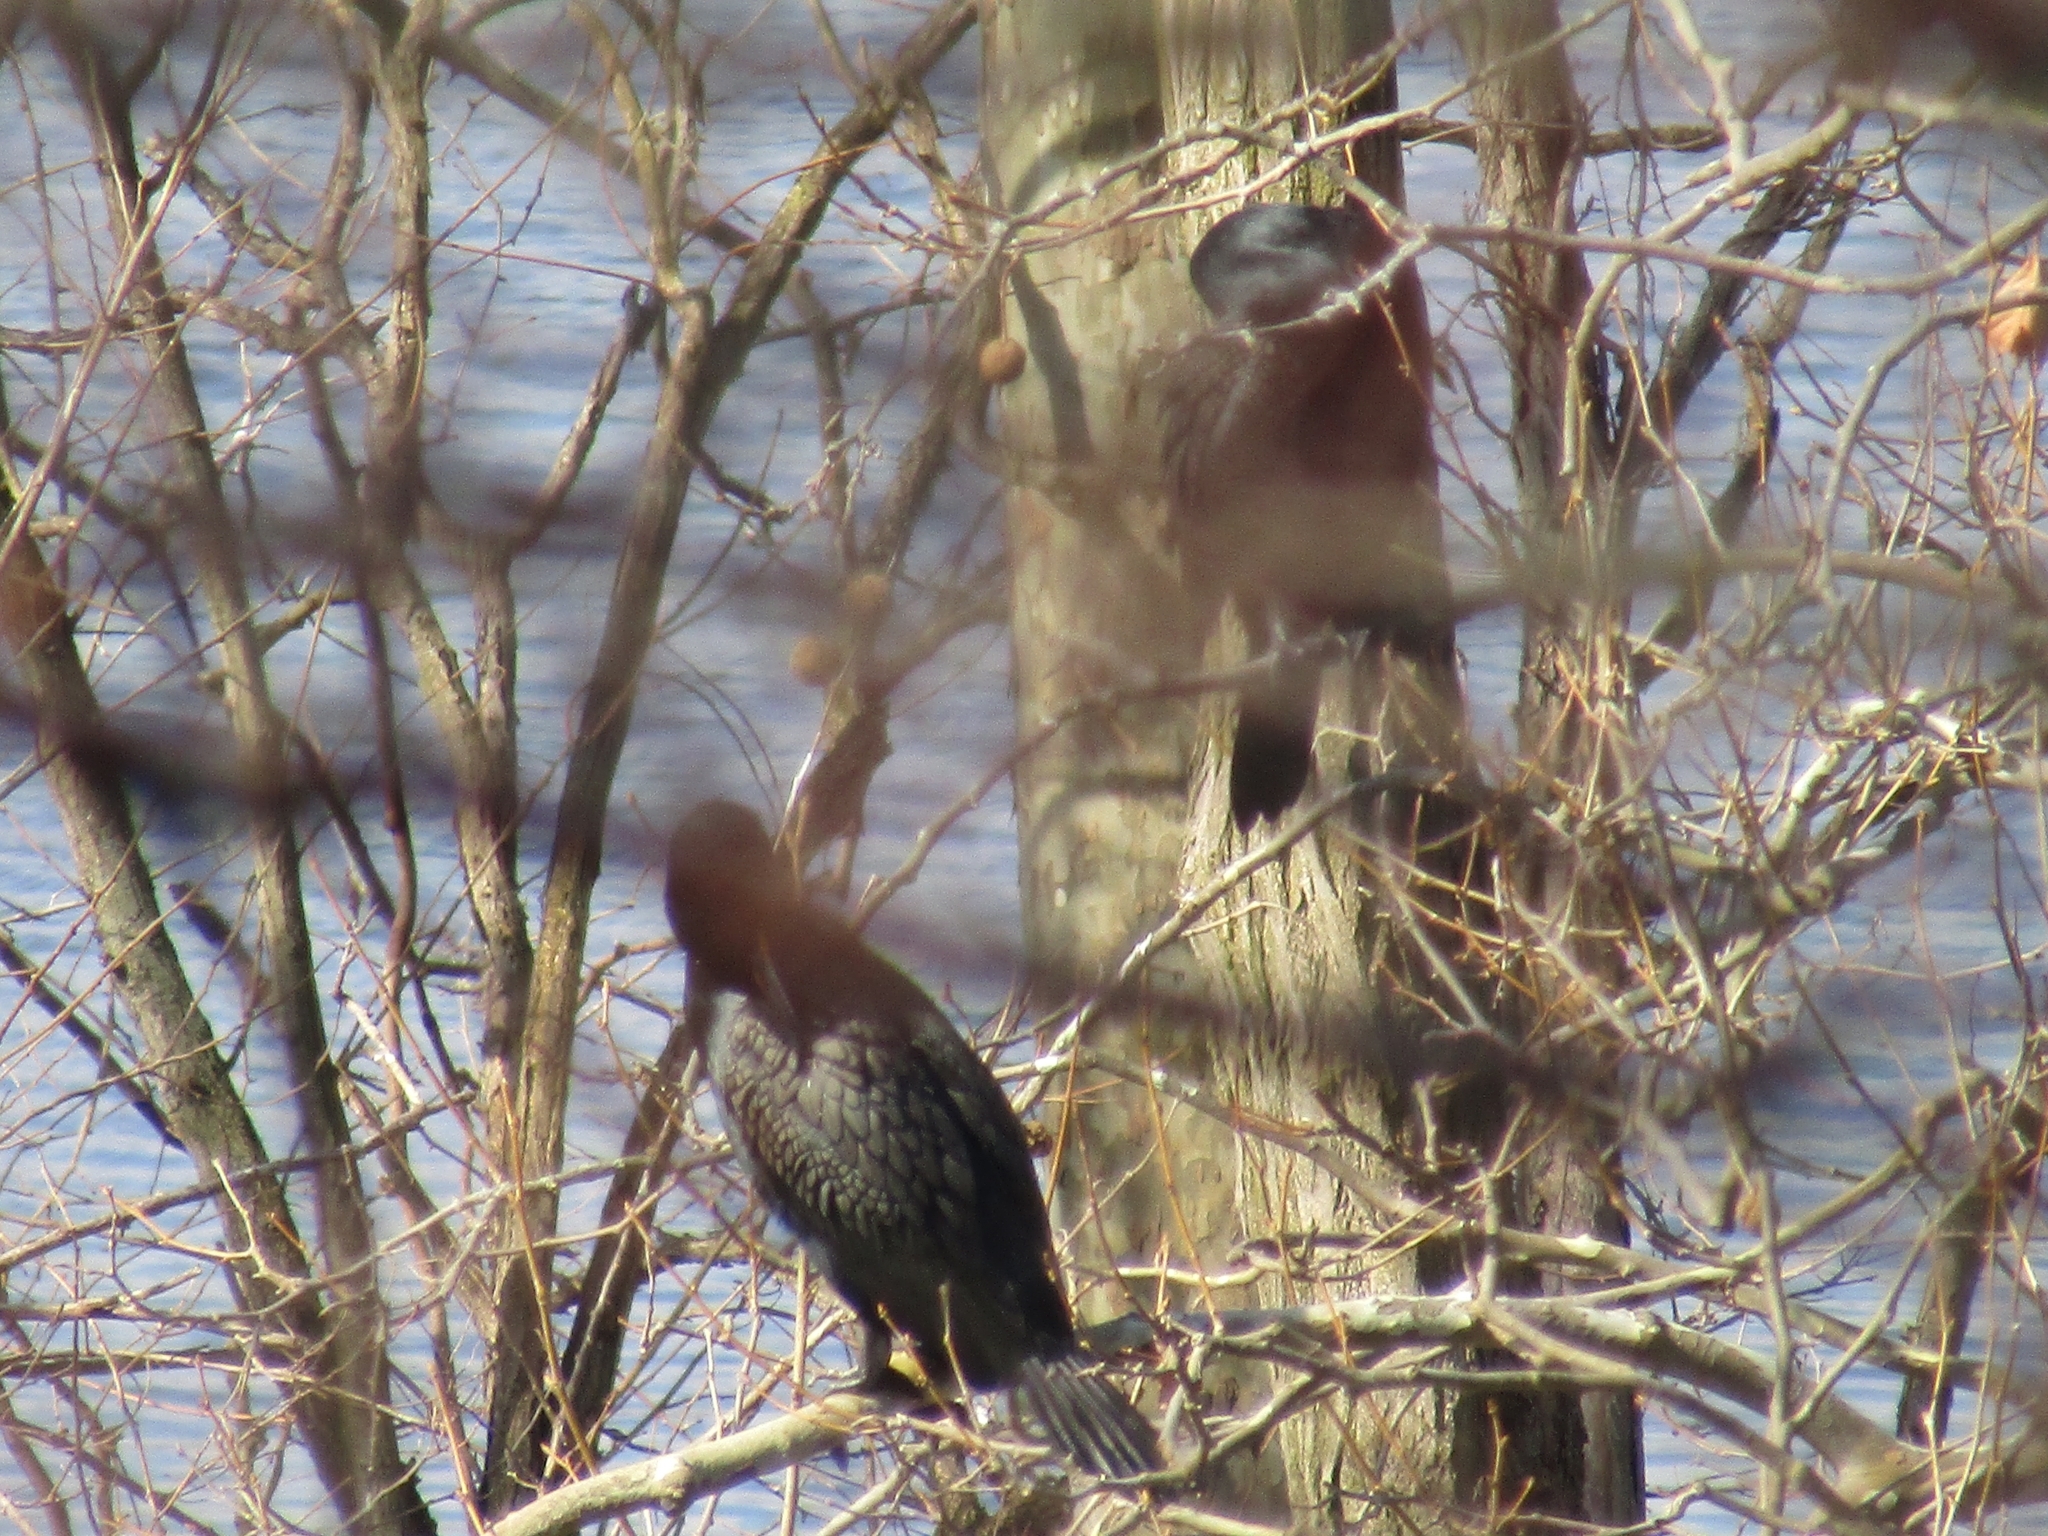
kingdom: Animalia
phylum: Chordata
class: Aves
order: Suliformes
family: Phalacrocoracidae
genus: Phalacrocorax
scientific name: Phalacrocorax auritus
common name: Double-crested cormorant
